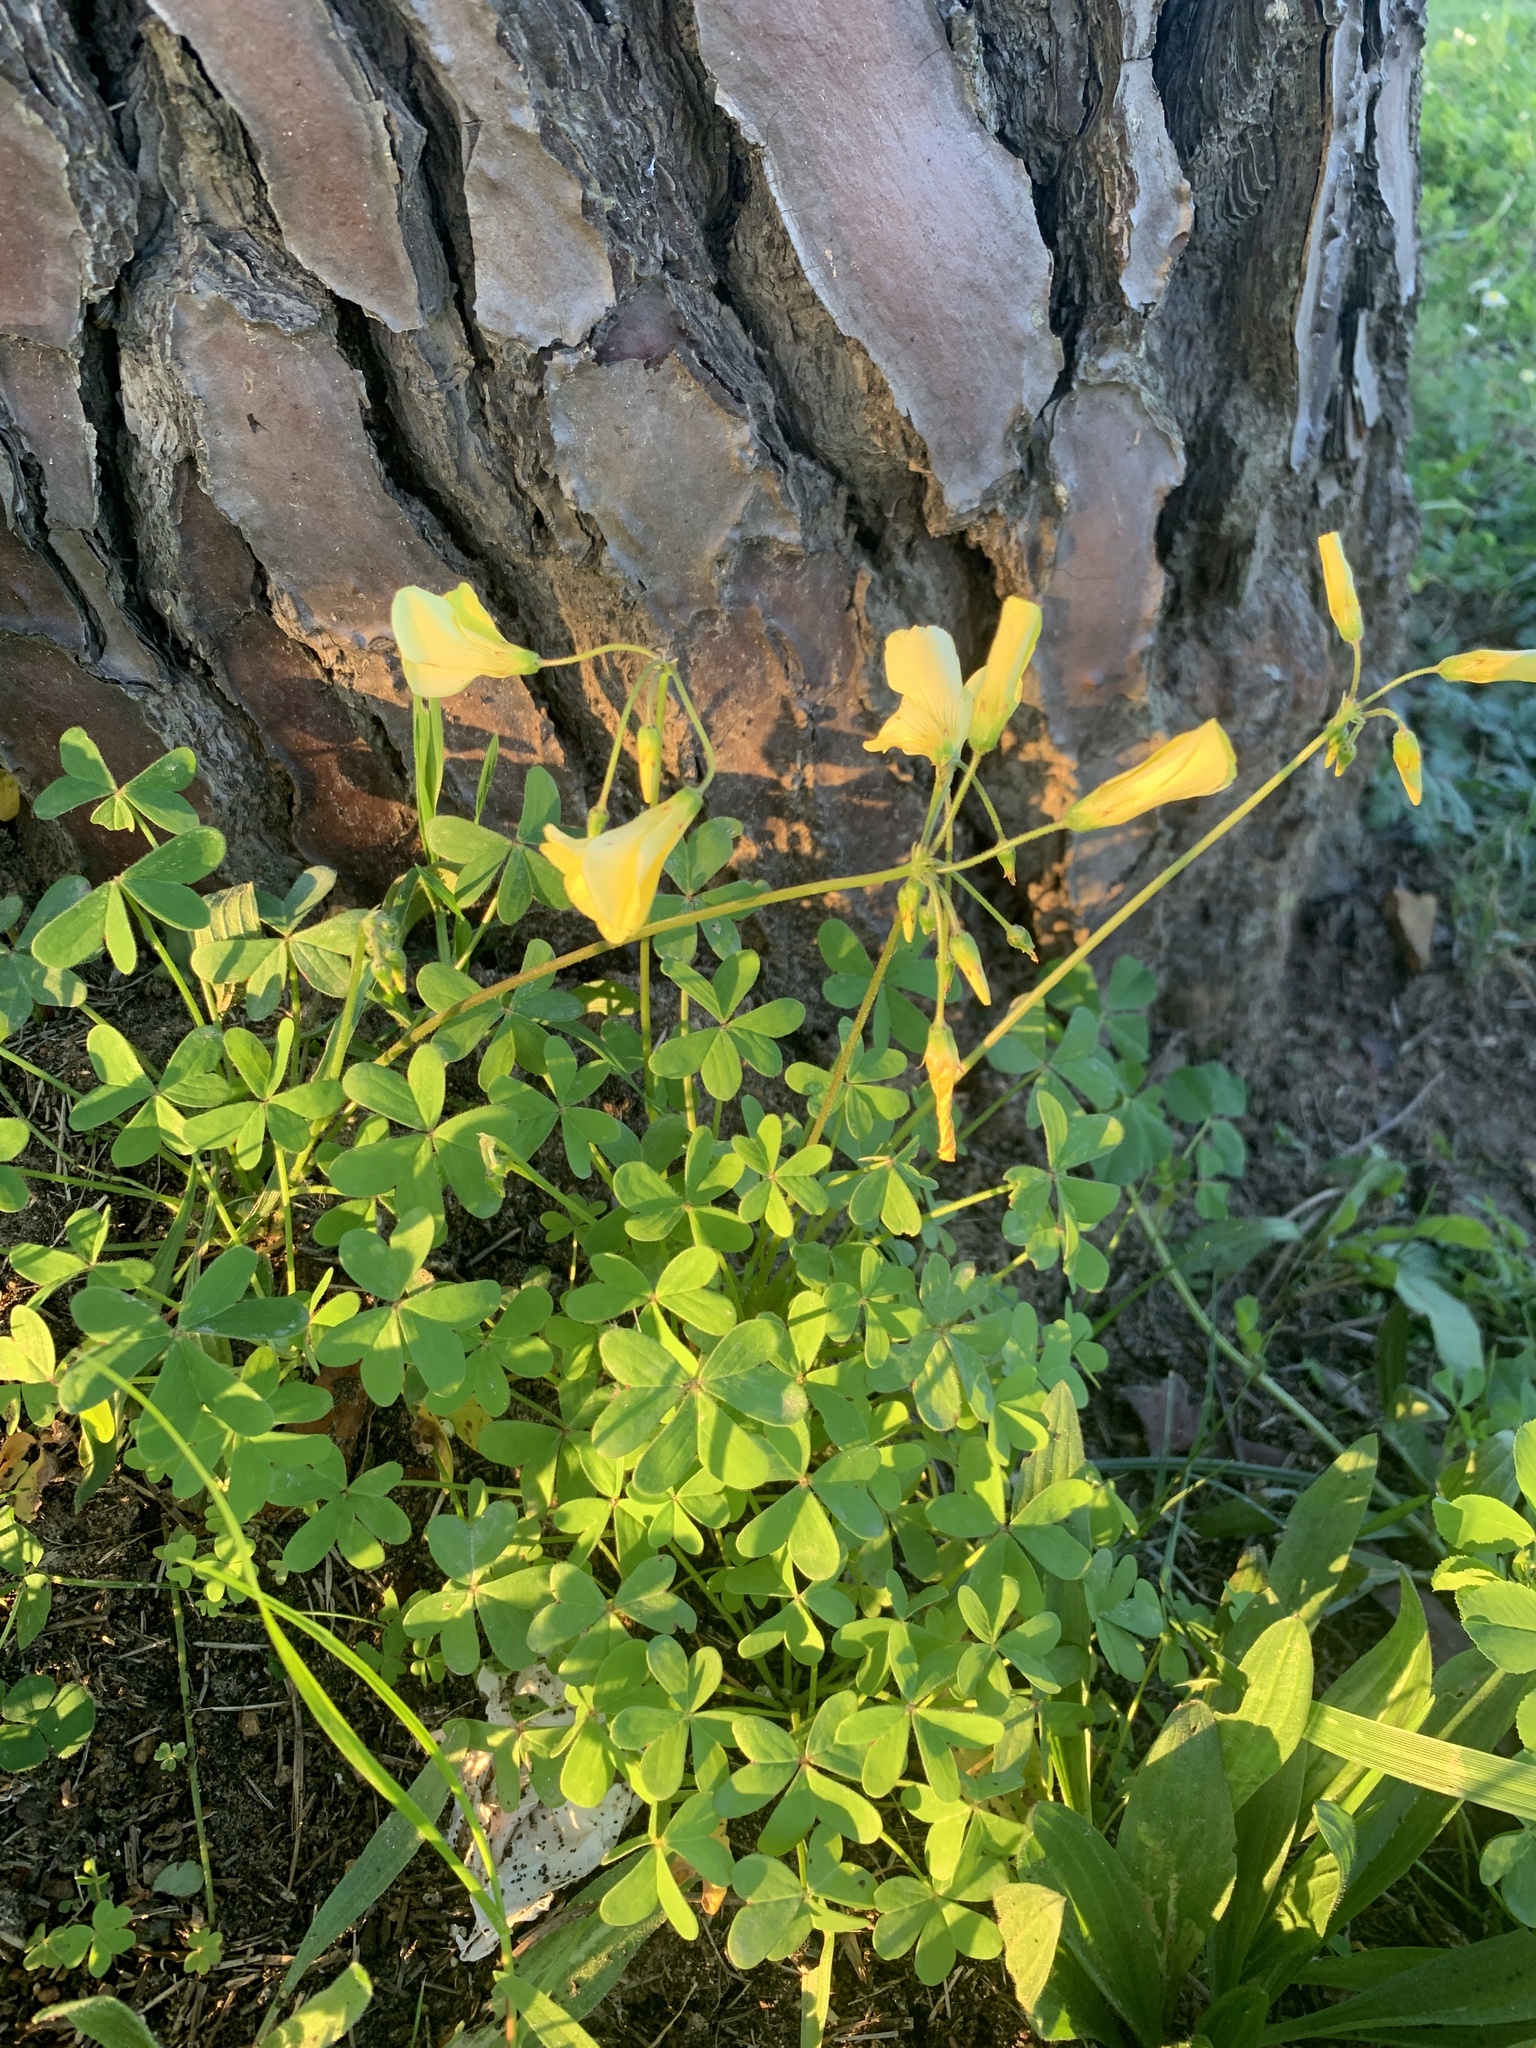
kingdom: Plantae
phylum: Tracheophyta
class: Magnoliopsida
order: Oxalidales
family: Oxalidaceae
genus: Oxalis
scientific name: Oxalis pes-caprae
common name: Bermuda-buttercup
